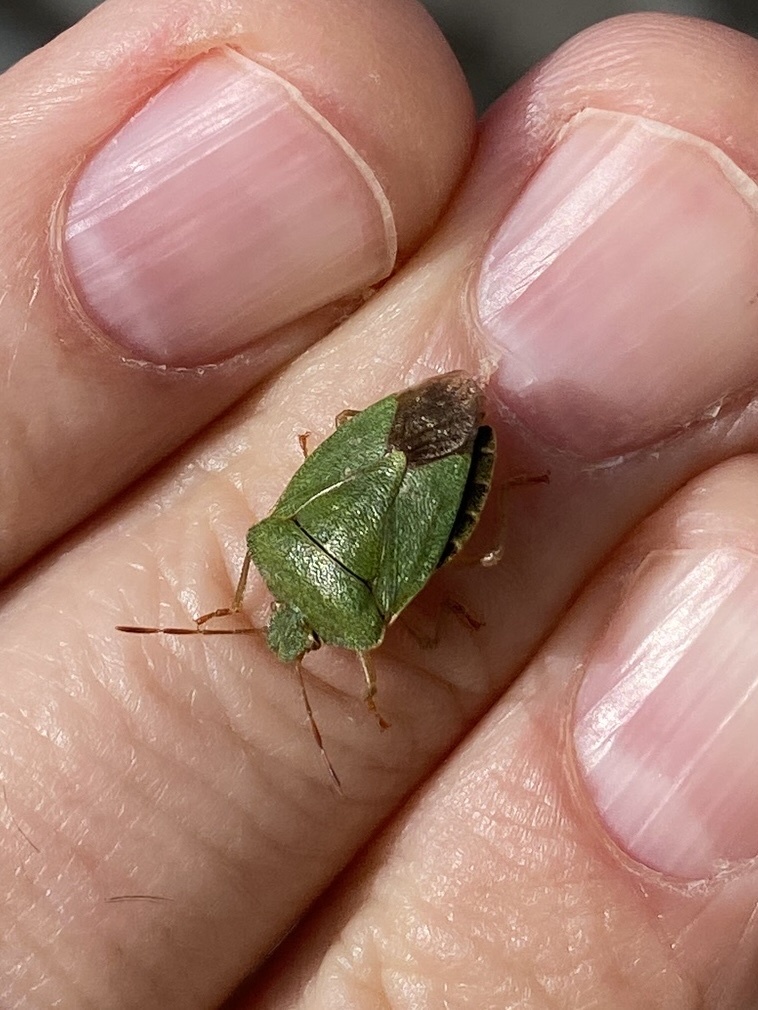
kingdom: Animalia
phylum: Arthropoda
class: Insecta
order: Hemiptera
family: Pentatomidae
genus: Palomena
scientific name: Palomena prasina
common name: Green shieldbug
